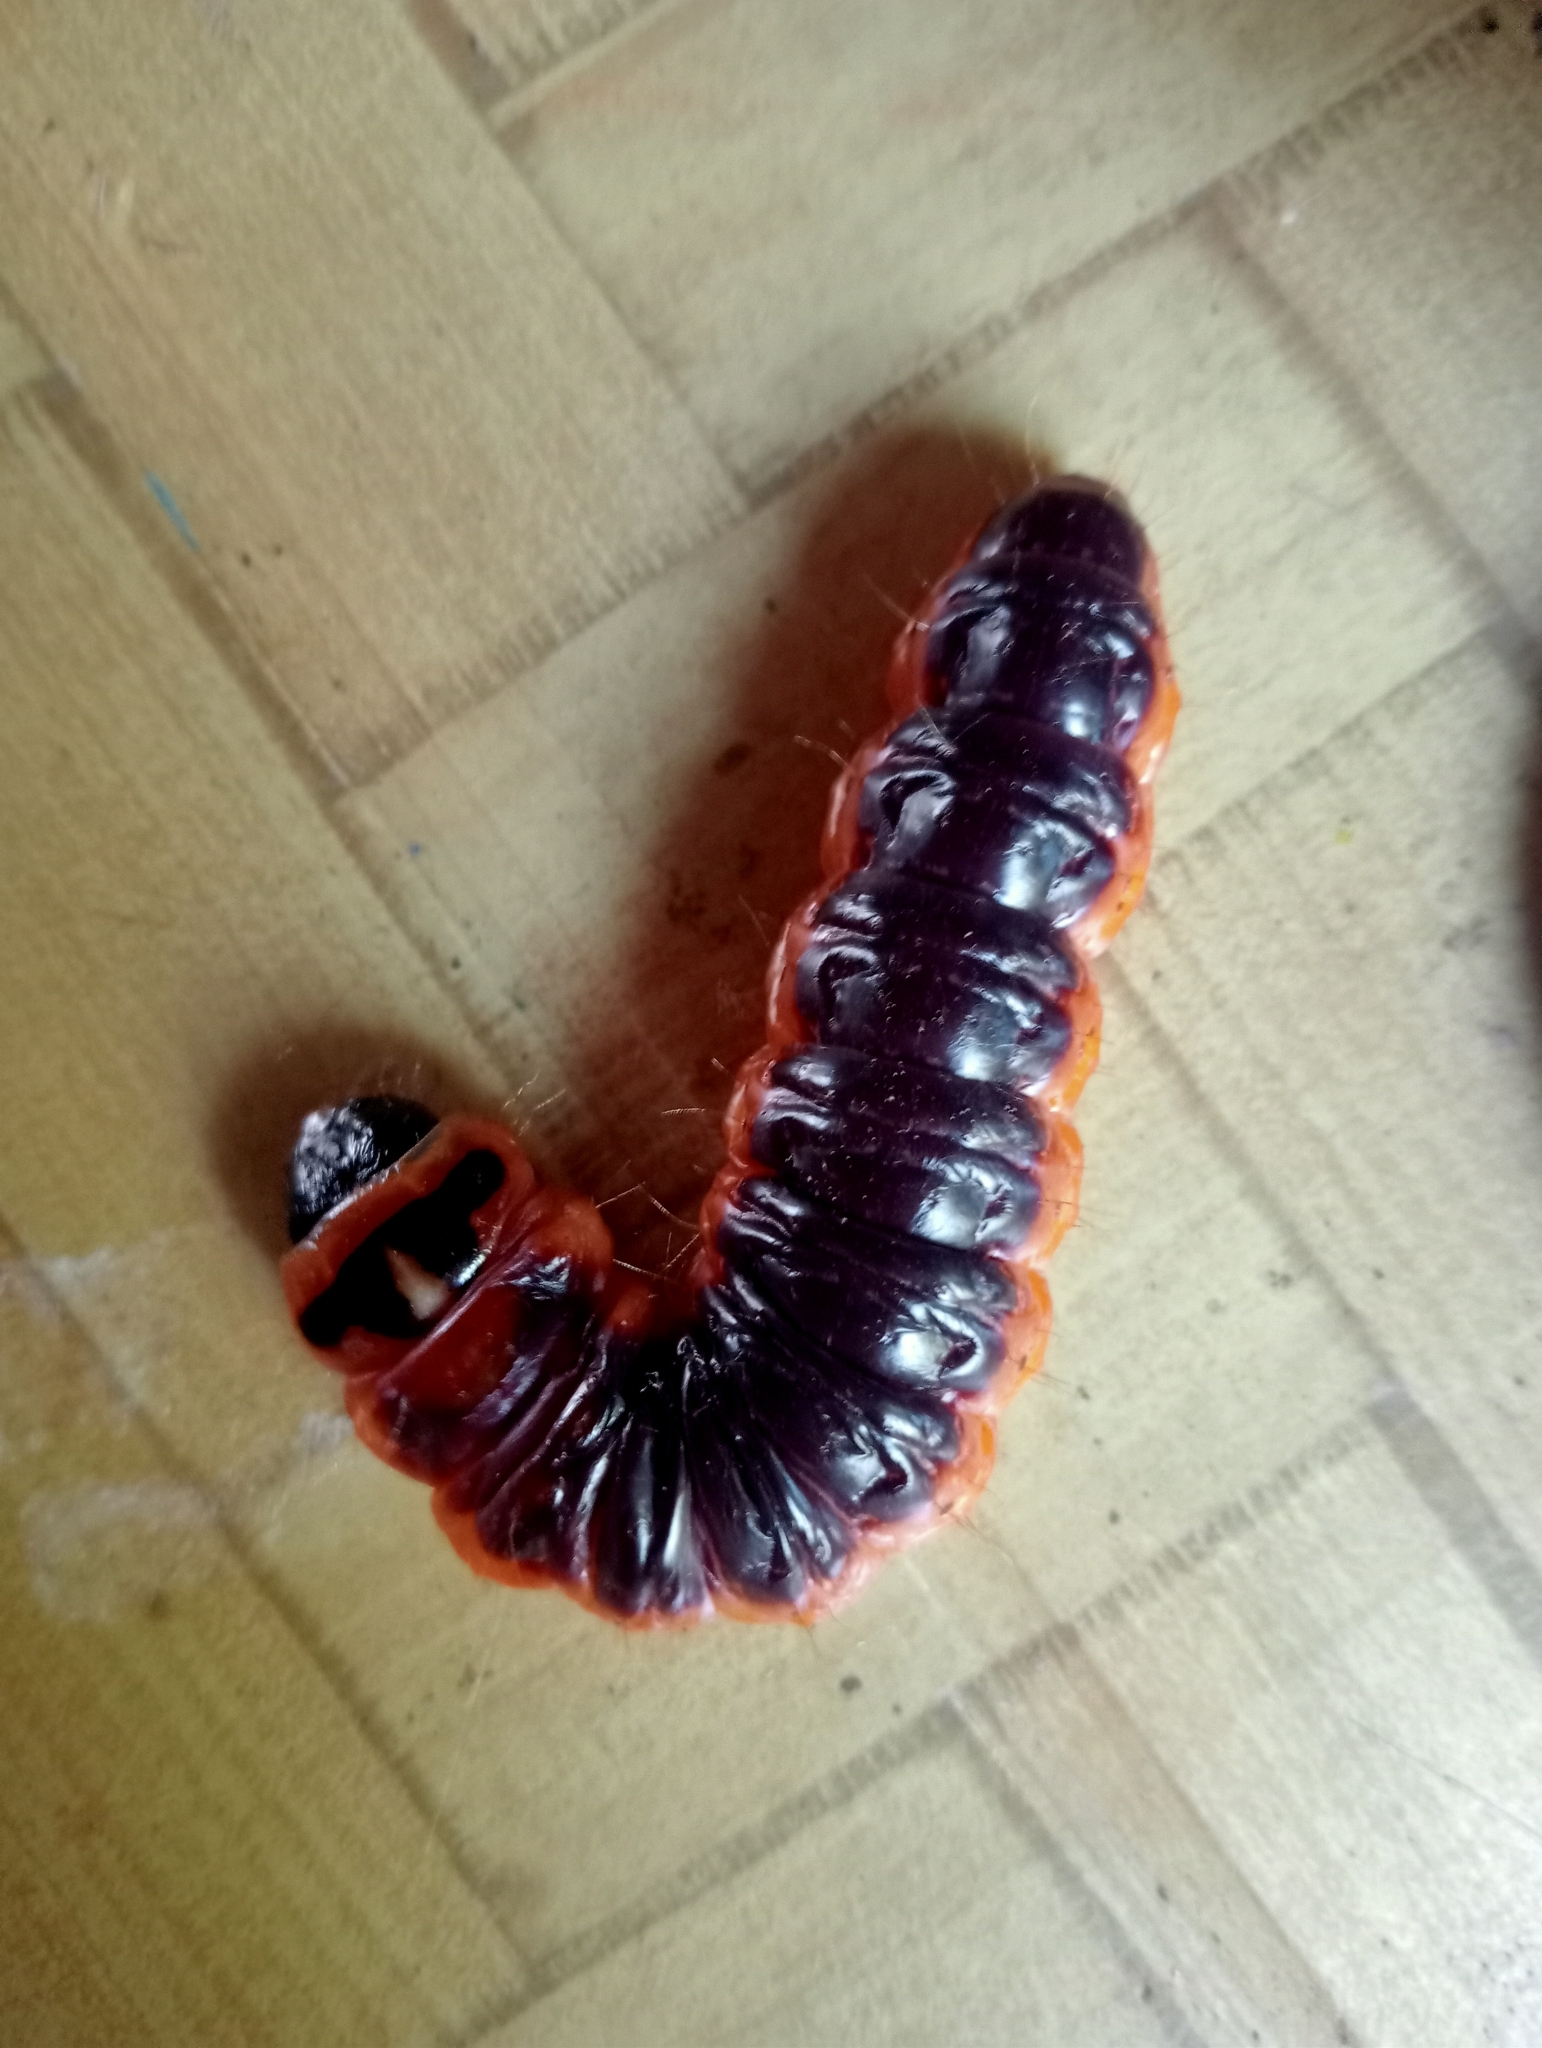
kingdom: Animalia
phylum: Arthropoda
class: Insecta
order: Lepidoptera
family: Cossidae
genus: Cossus
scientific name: Cossus cossus
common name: Goat moth
